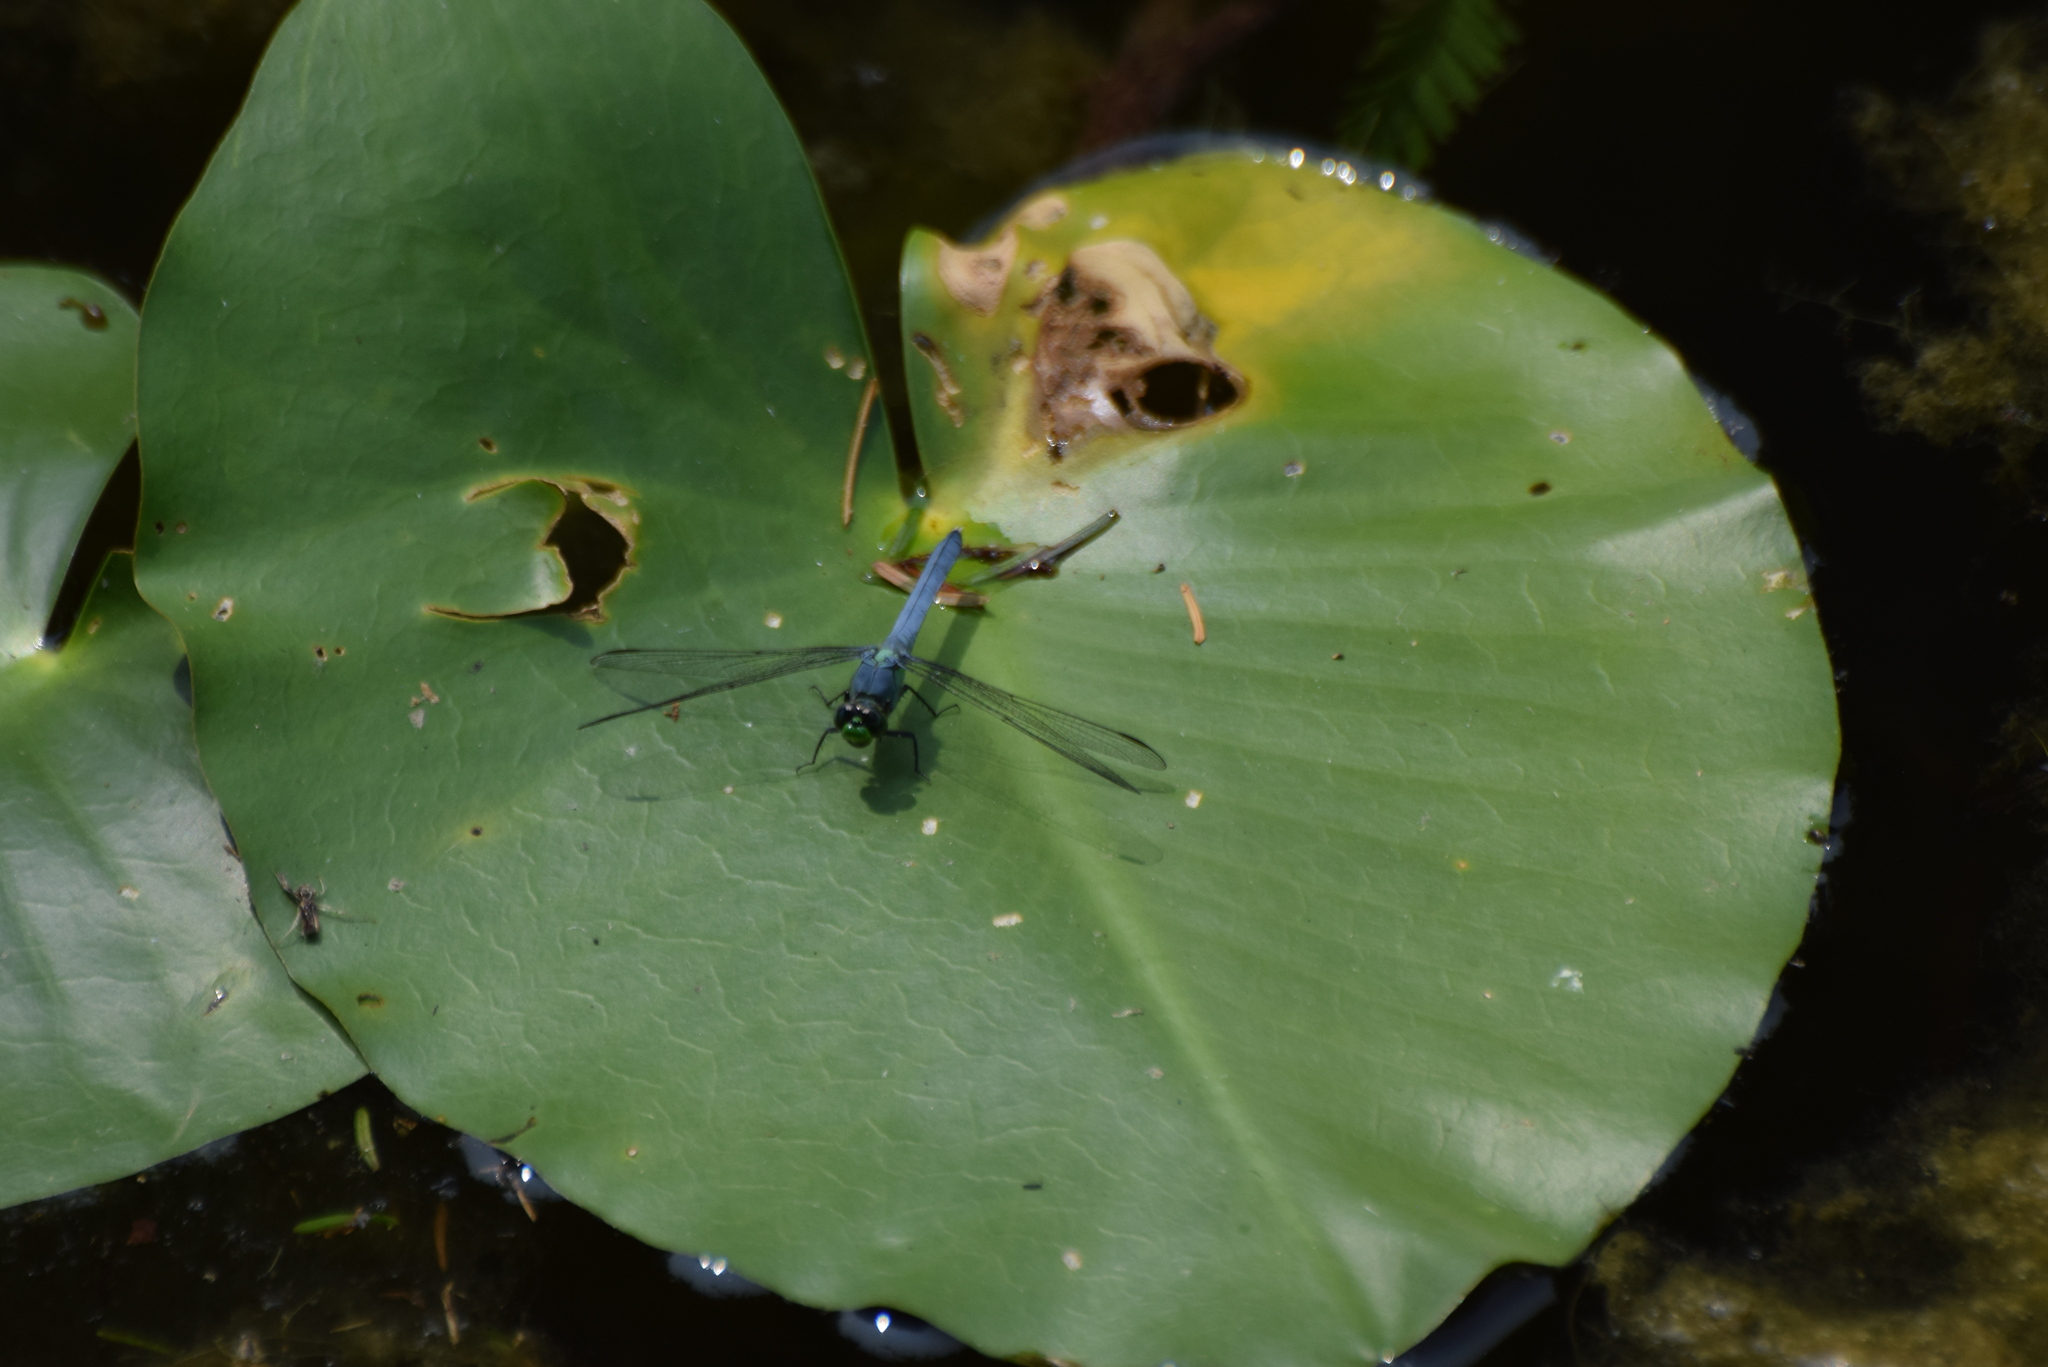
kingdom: Animalia
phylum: Arthropoda
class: Insecta
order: Odonata
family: Libellulidae
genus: Erythemis
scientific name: Erythemis simplicicollis
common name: Eastern pondhawk
